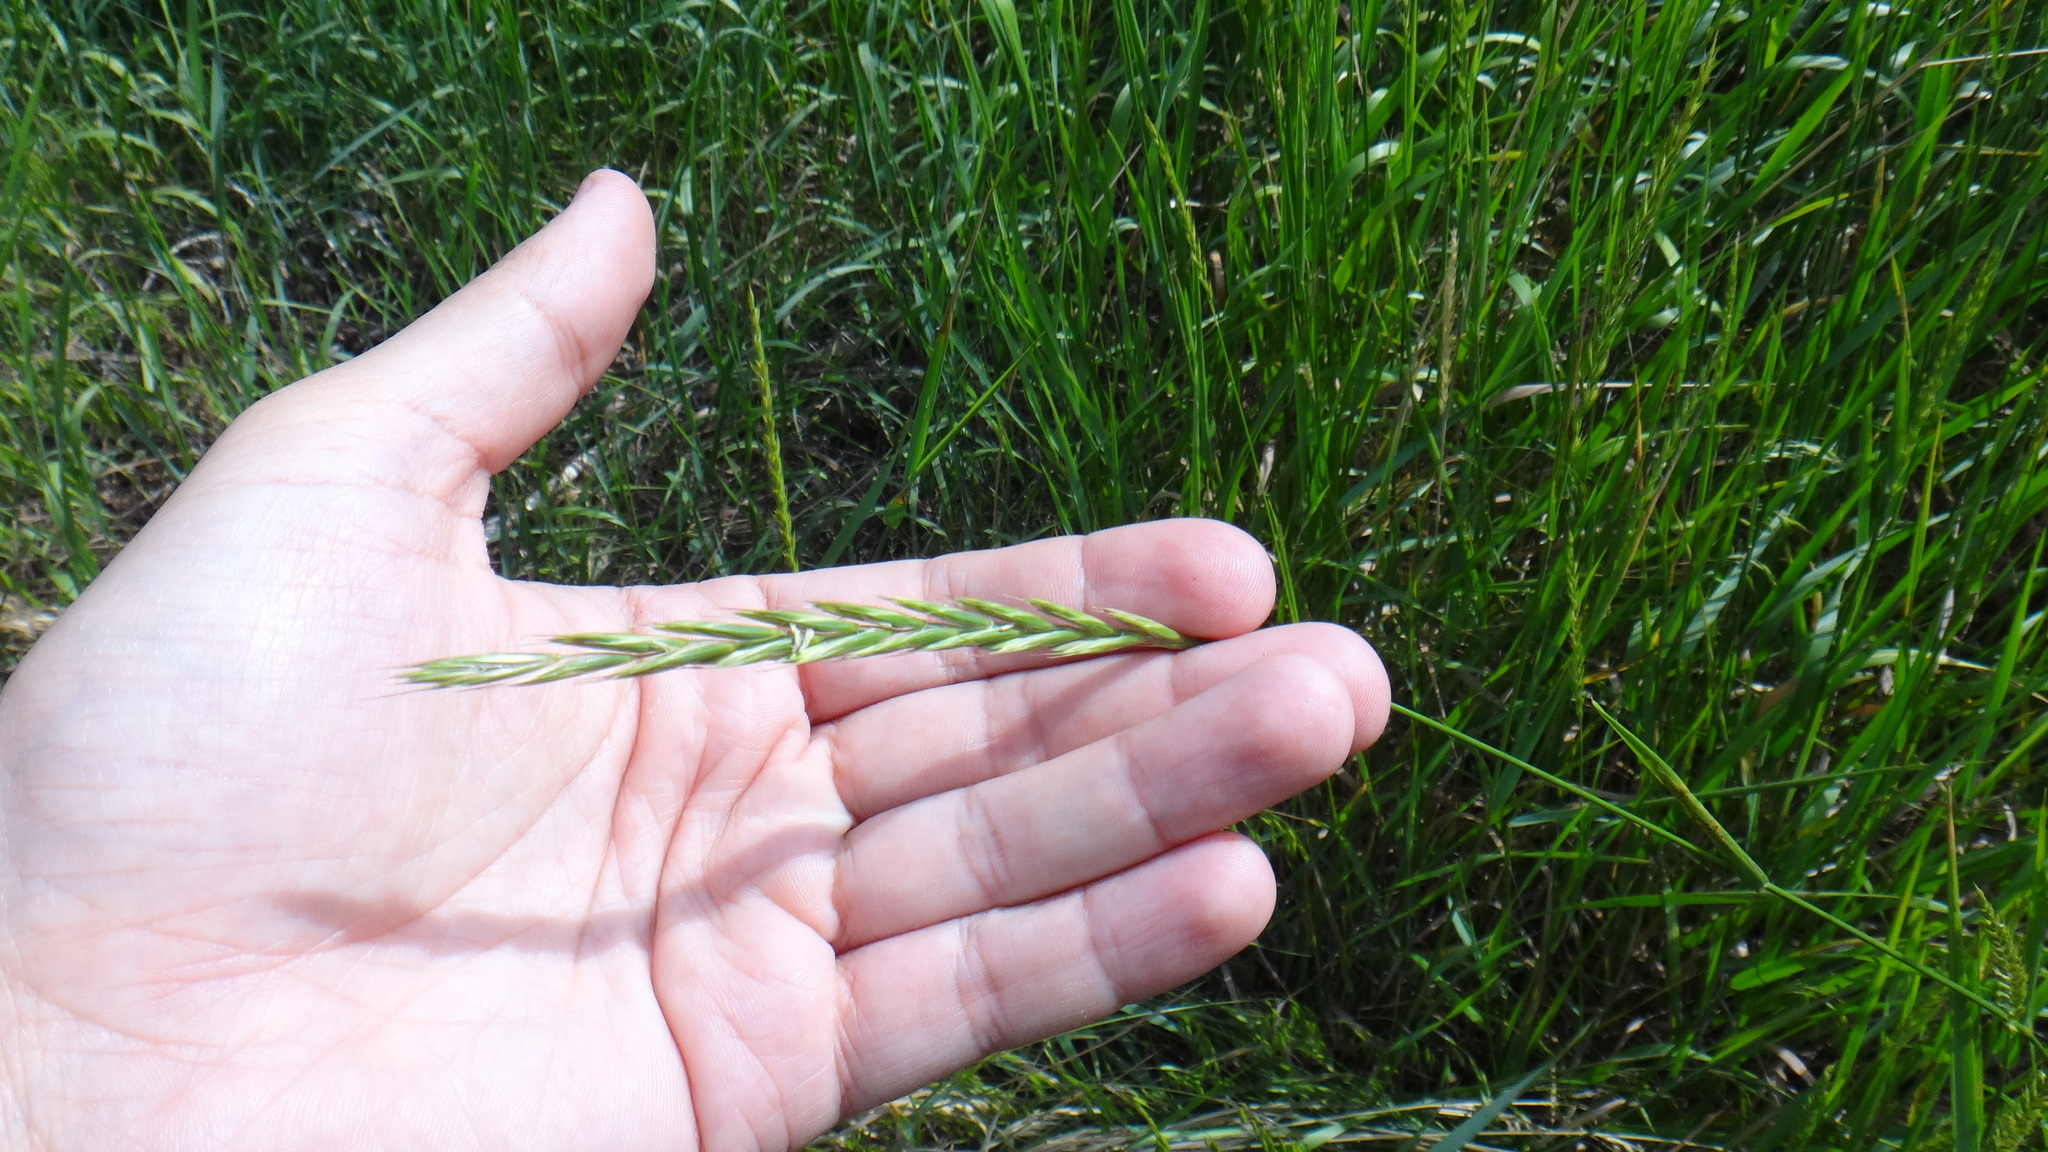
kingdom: Plantae
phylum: Tracheophyta
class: Liliopsida
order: Poales
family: Poaceae
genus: Elymus
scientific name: Elymus repens
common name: Quackgrass
